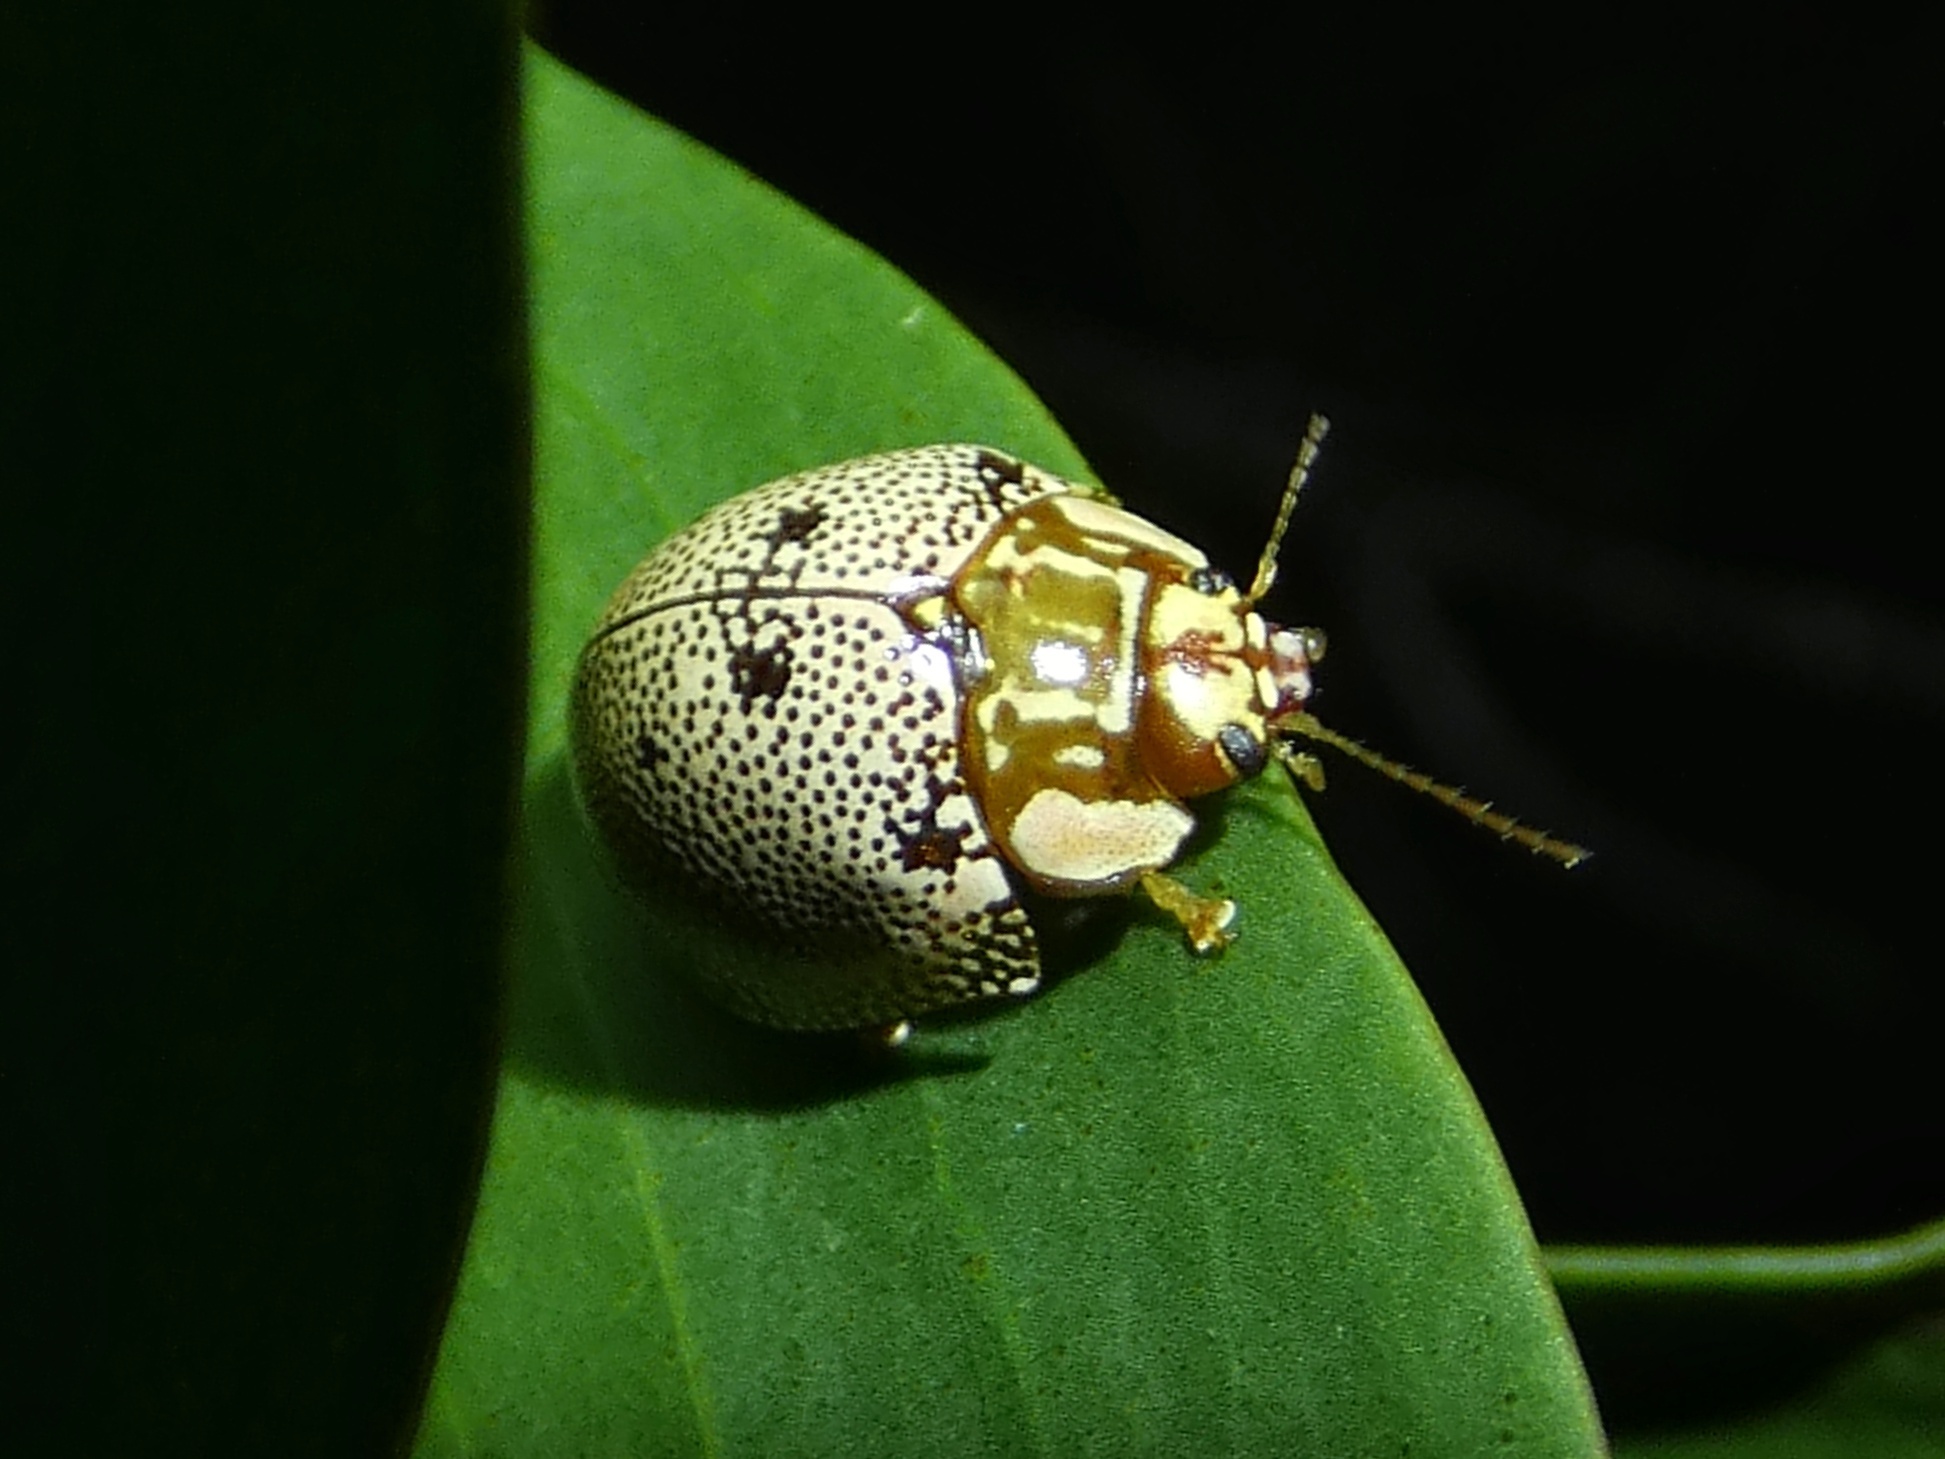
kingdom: Animalia
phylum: Arthropoda
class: Insecta
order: Coleoptera
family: Chrysomelidae
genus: Paropsis
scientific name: Paropsis sospita
